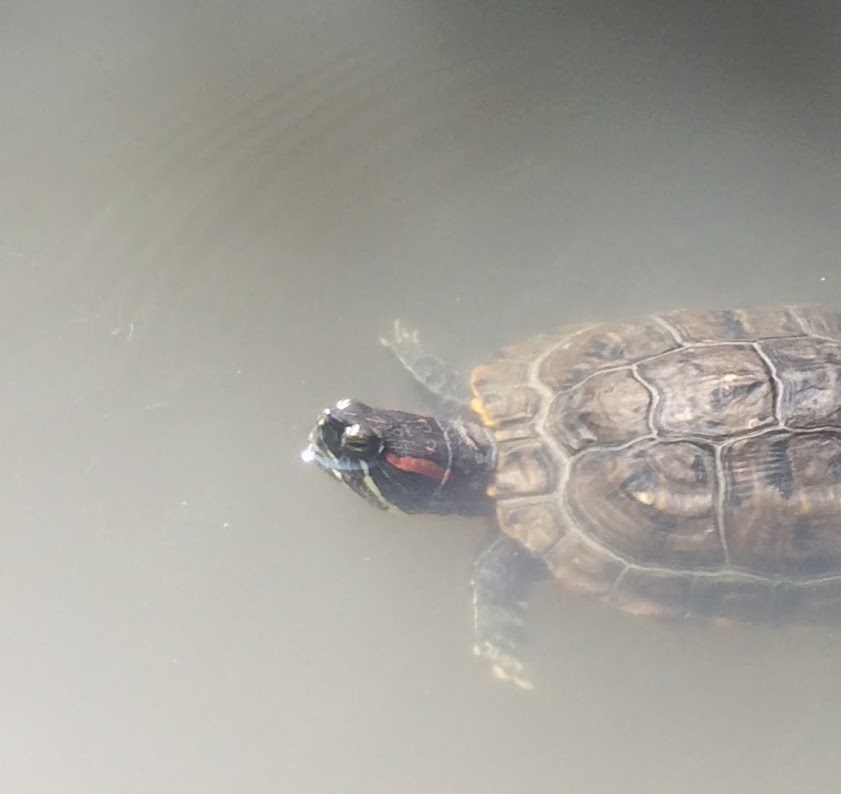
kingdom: Animalia
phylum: Chordata
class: Testudines
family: Emydidae
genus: Trachemys
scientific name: Trachemys scripta
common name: Slider
